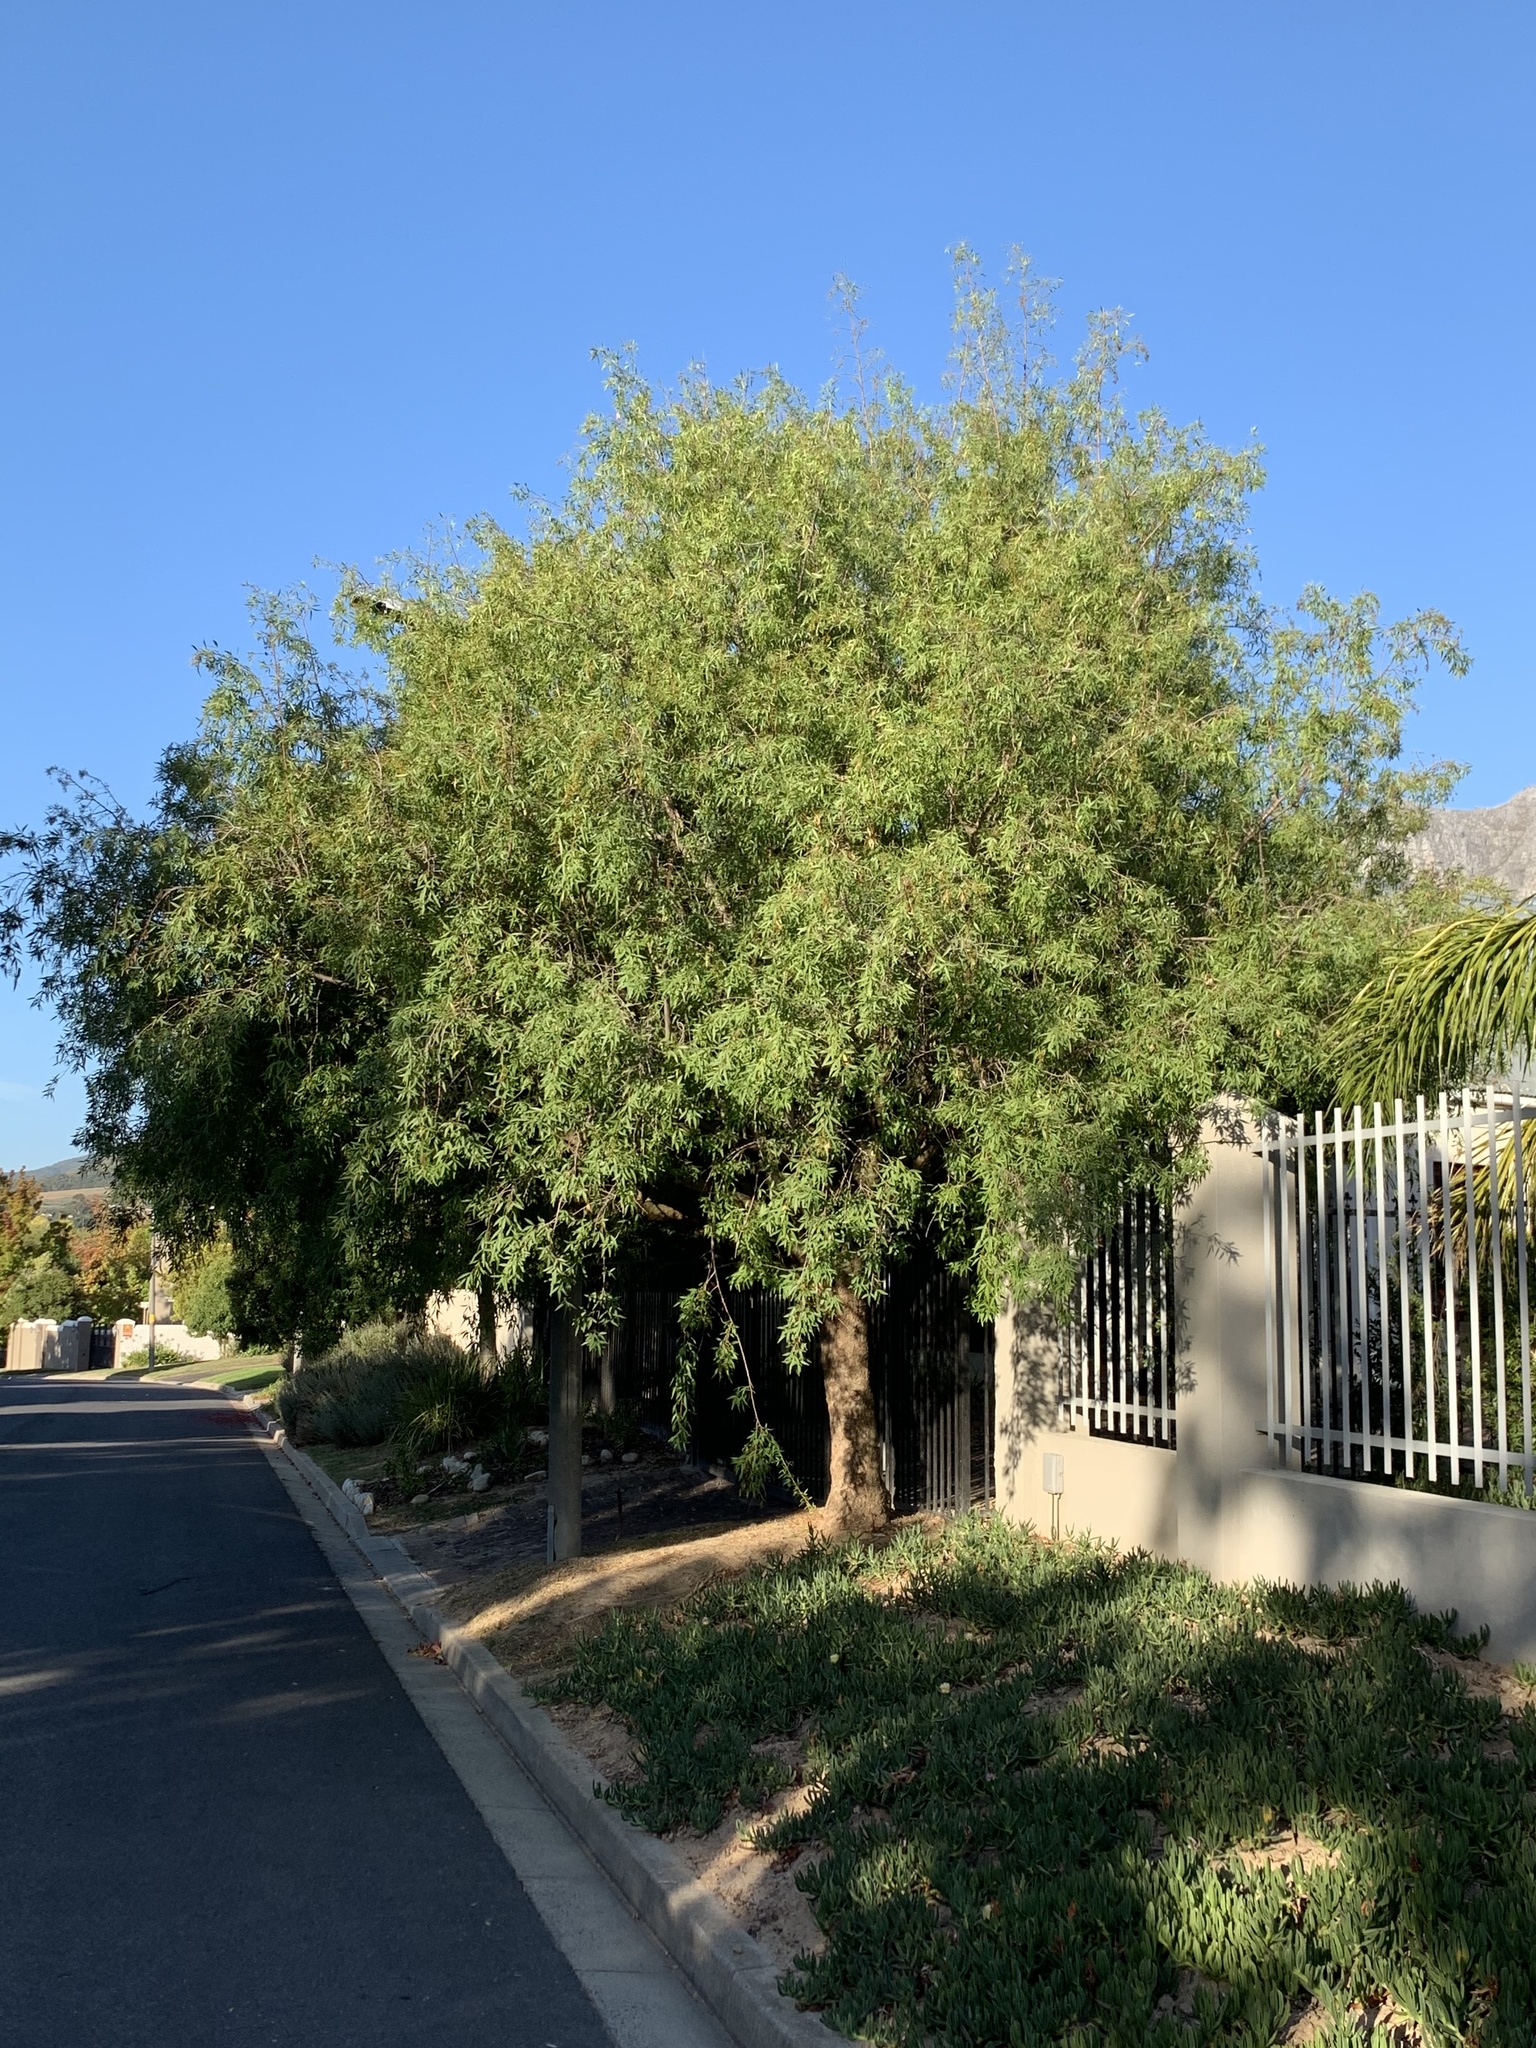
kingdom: Plantae
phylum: Tracheophyta
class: Magnoliopsida
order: Sapindales
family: Anacardiaceae
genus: Searsia
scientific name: Searsia pendulina
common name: White karee
